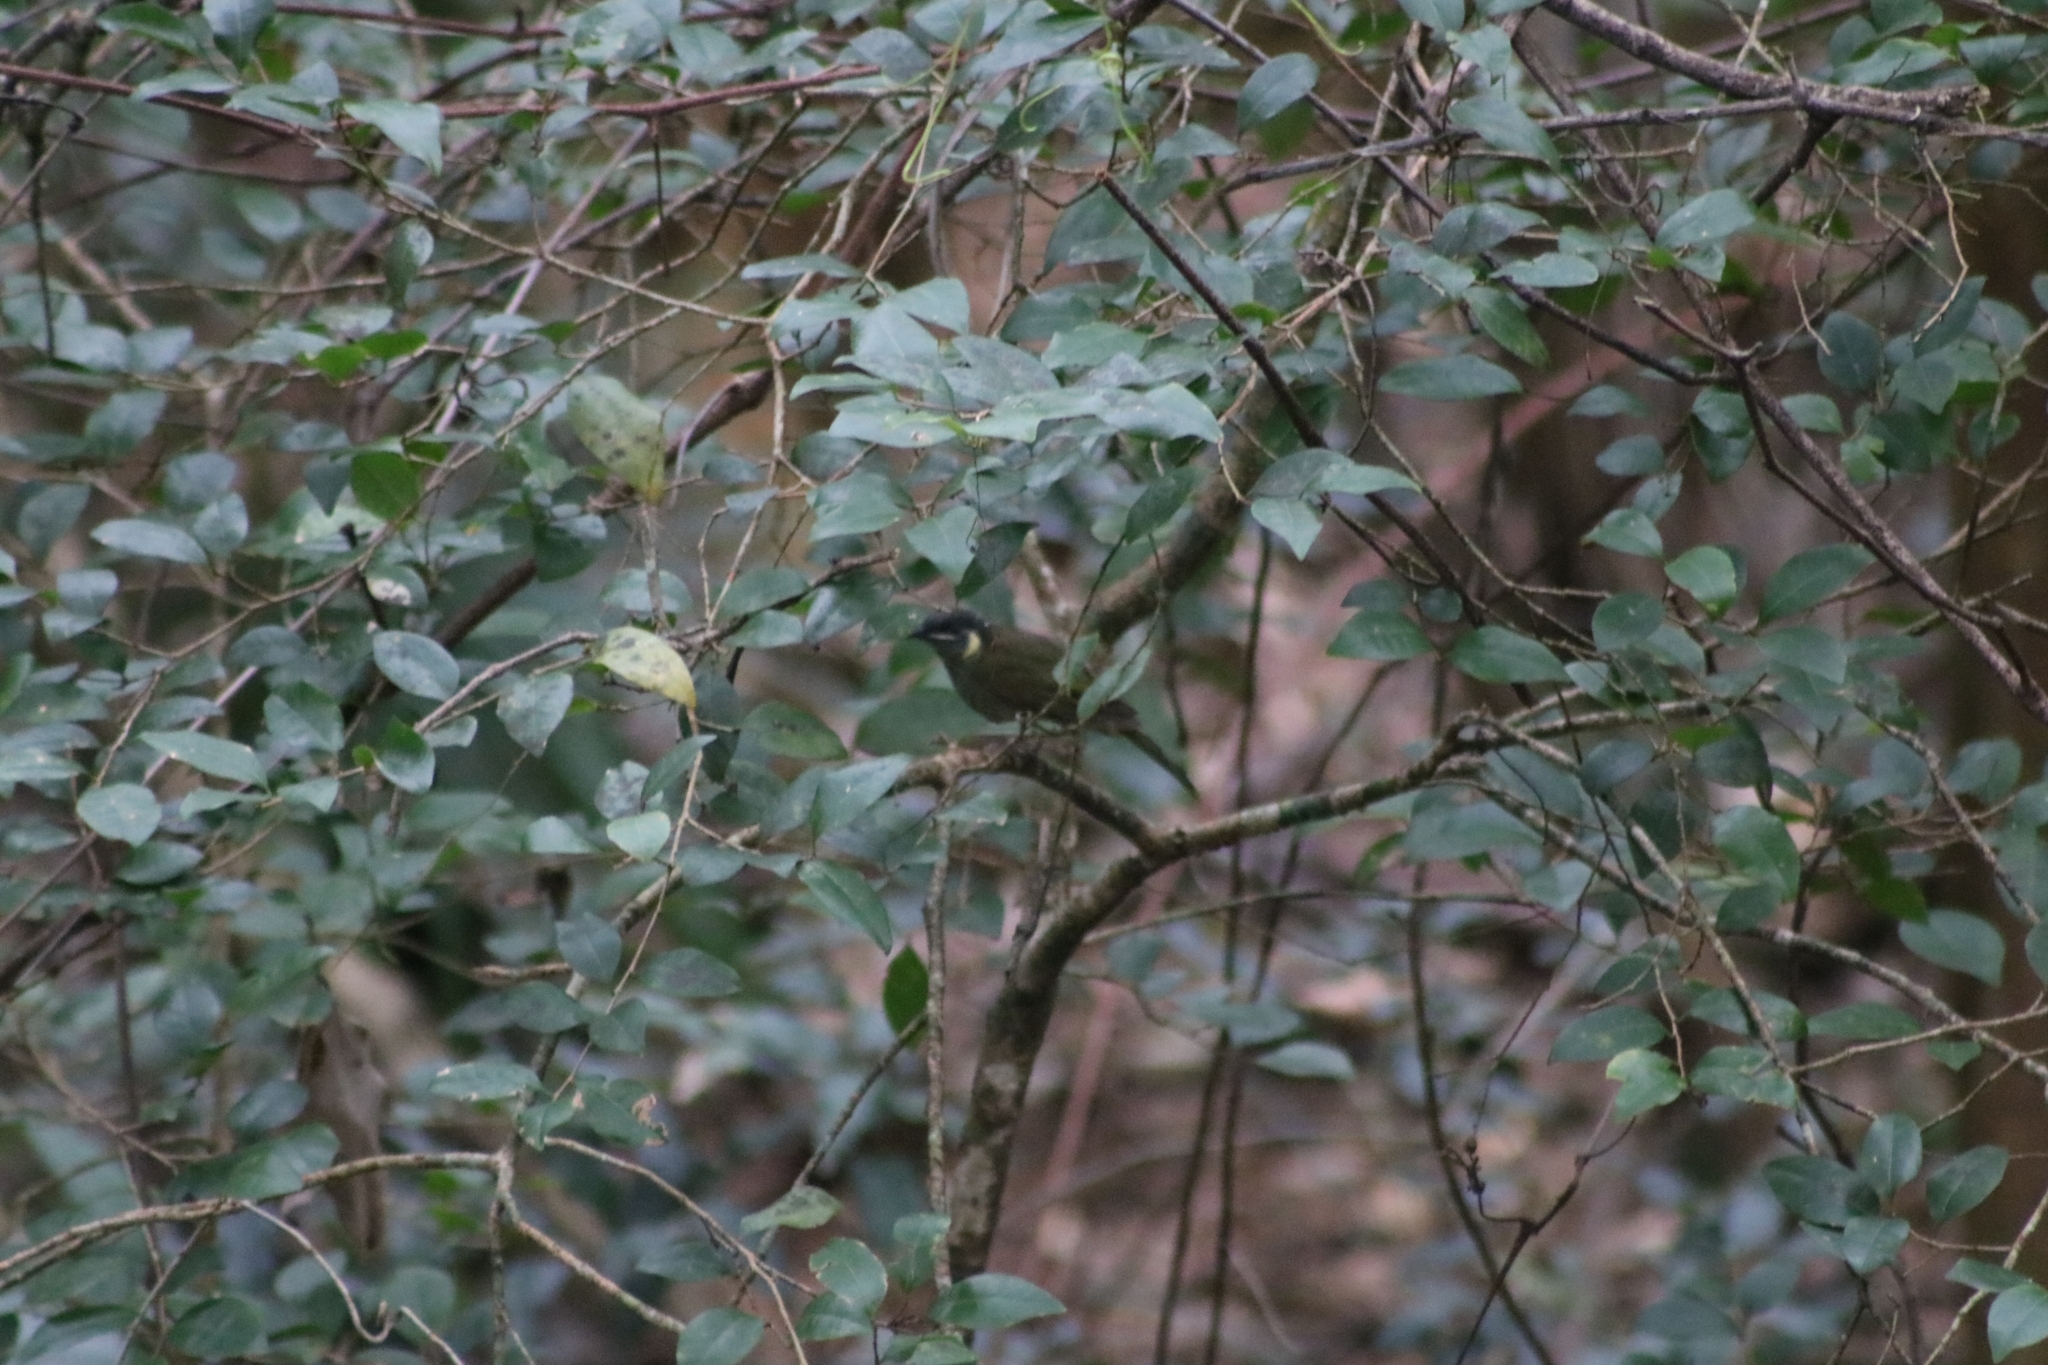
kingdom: Animalia
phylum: Chordata
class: Aves
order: Passeriformes
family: Meliphagidae
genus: Meliphaga
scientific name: Meliphaga lewinii
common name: Lewin's honeyeater
